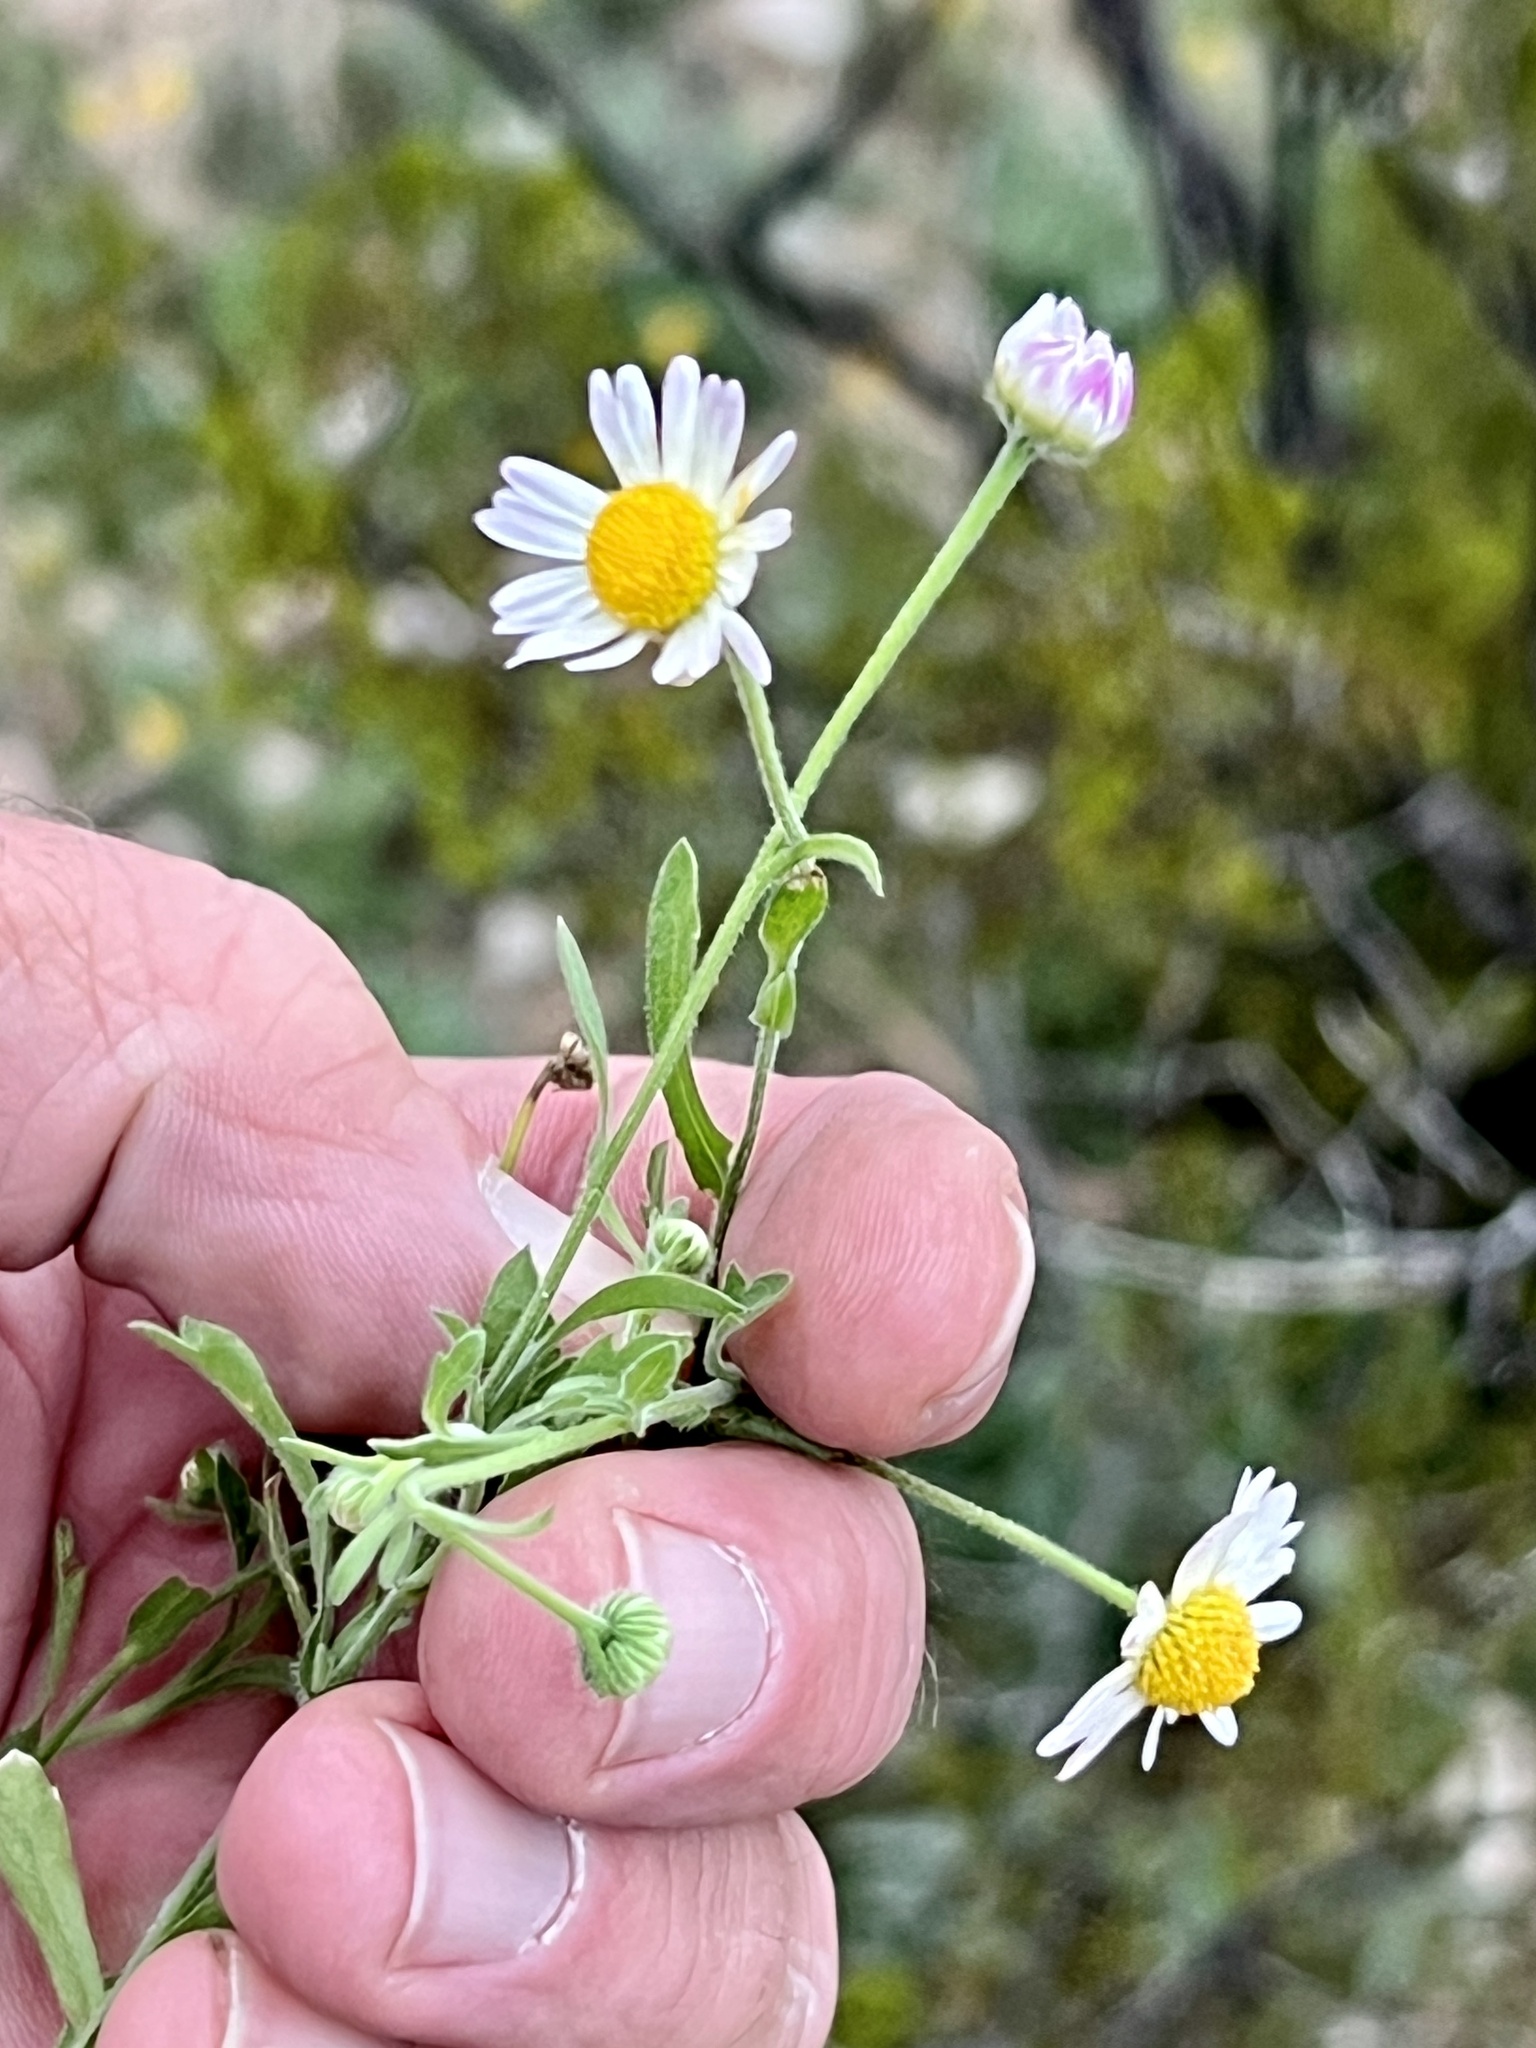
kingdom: Plantae
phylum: Tracheophyta
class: Magnoliopsida
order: Asterales
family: Asteraceae
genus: Erigeron
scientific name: Erigeron modestus
